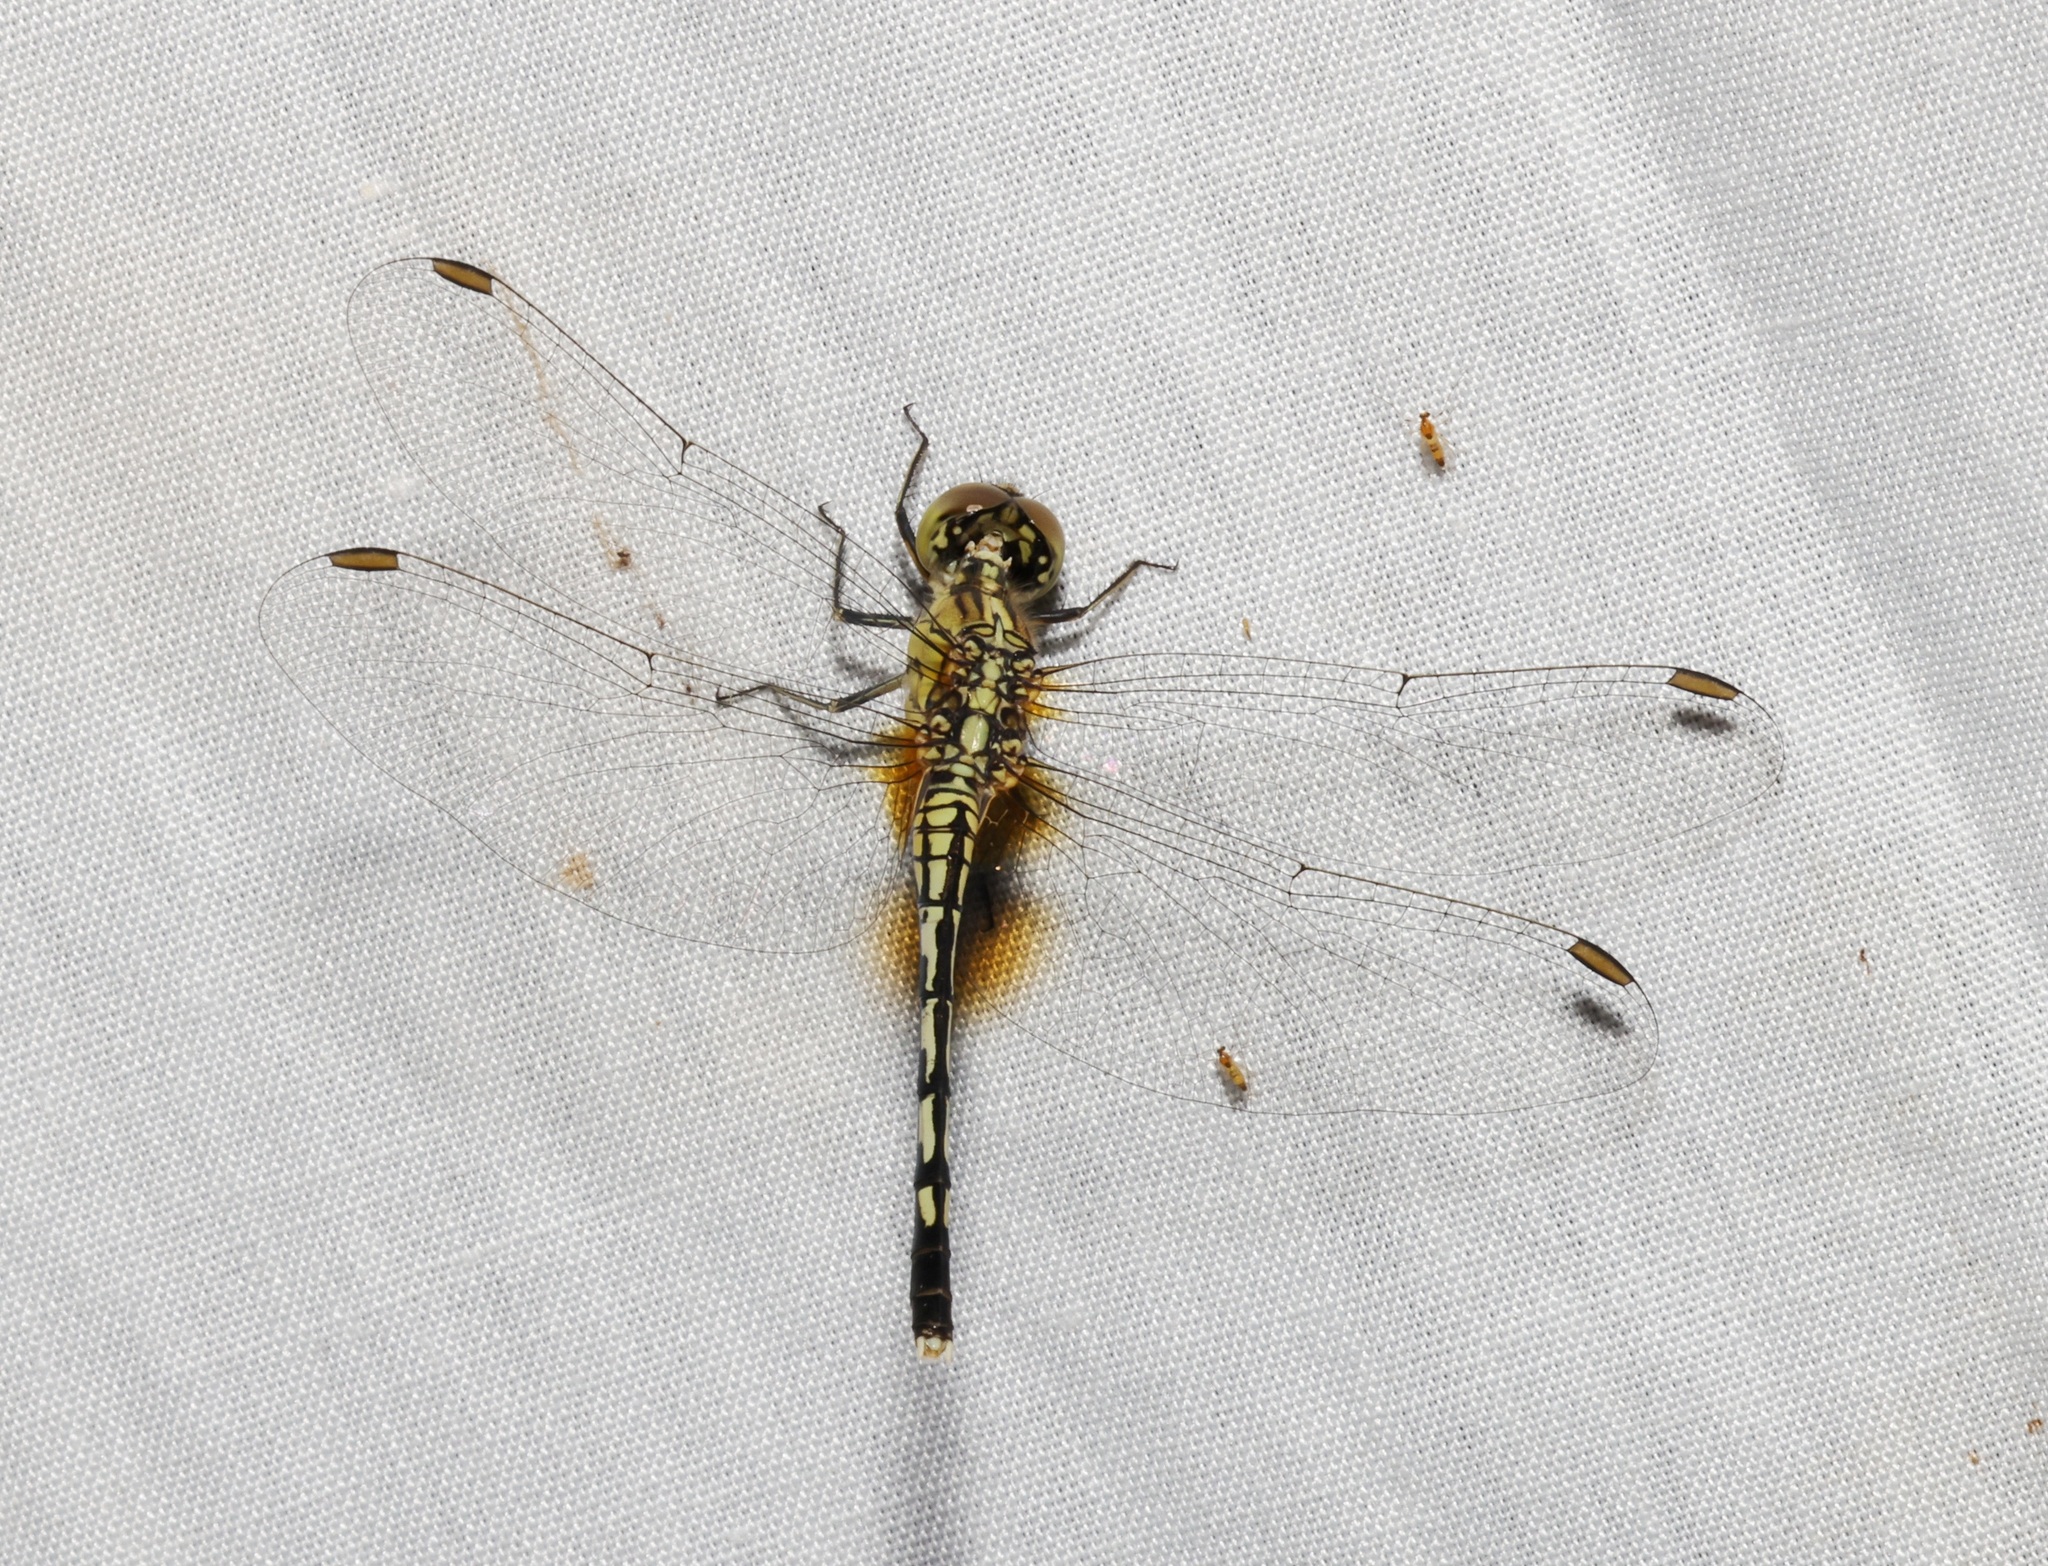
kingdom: Animalia
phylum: Arthropoda
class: Insecta
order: Odonata
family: Libellulidae
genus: Diplacodes
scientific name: Diplacodes trivialis
